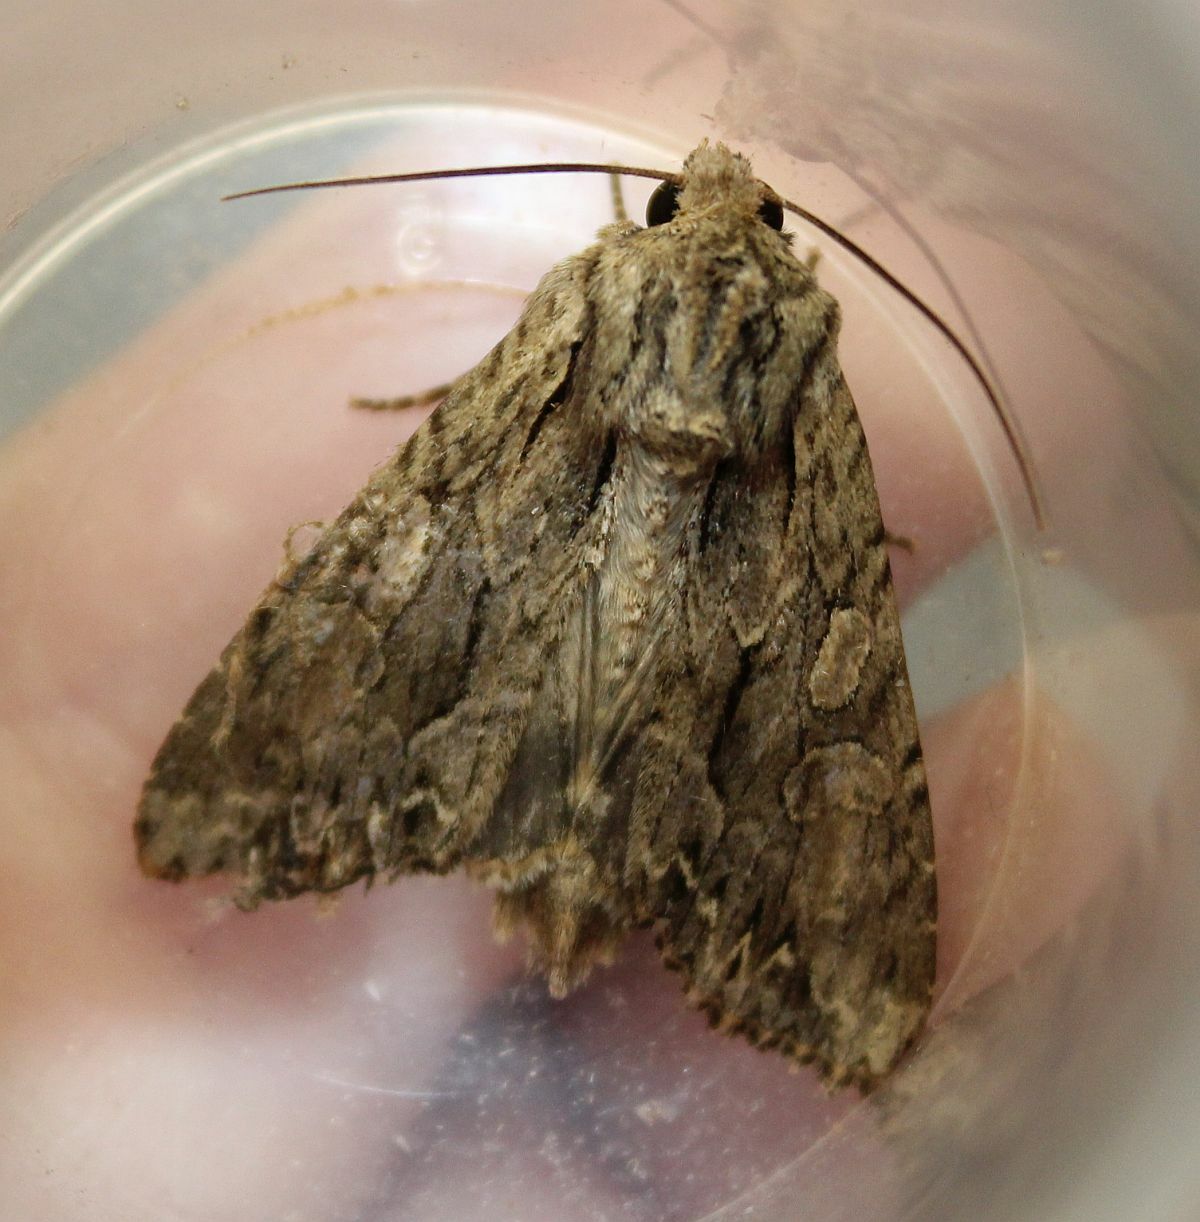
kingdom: Animalia
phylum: Arthropoda
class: Insecta
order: Lepidoptera
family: Noctuidae
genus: Apamea
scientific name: Apamea monoglypha
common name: Dark arches
